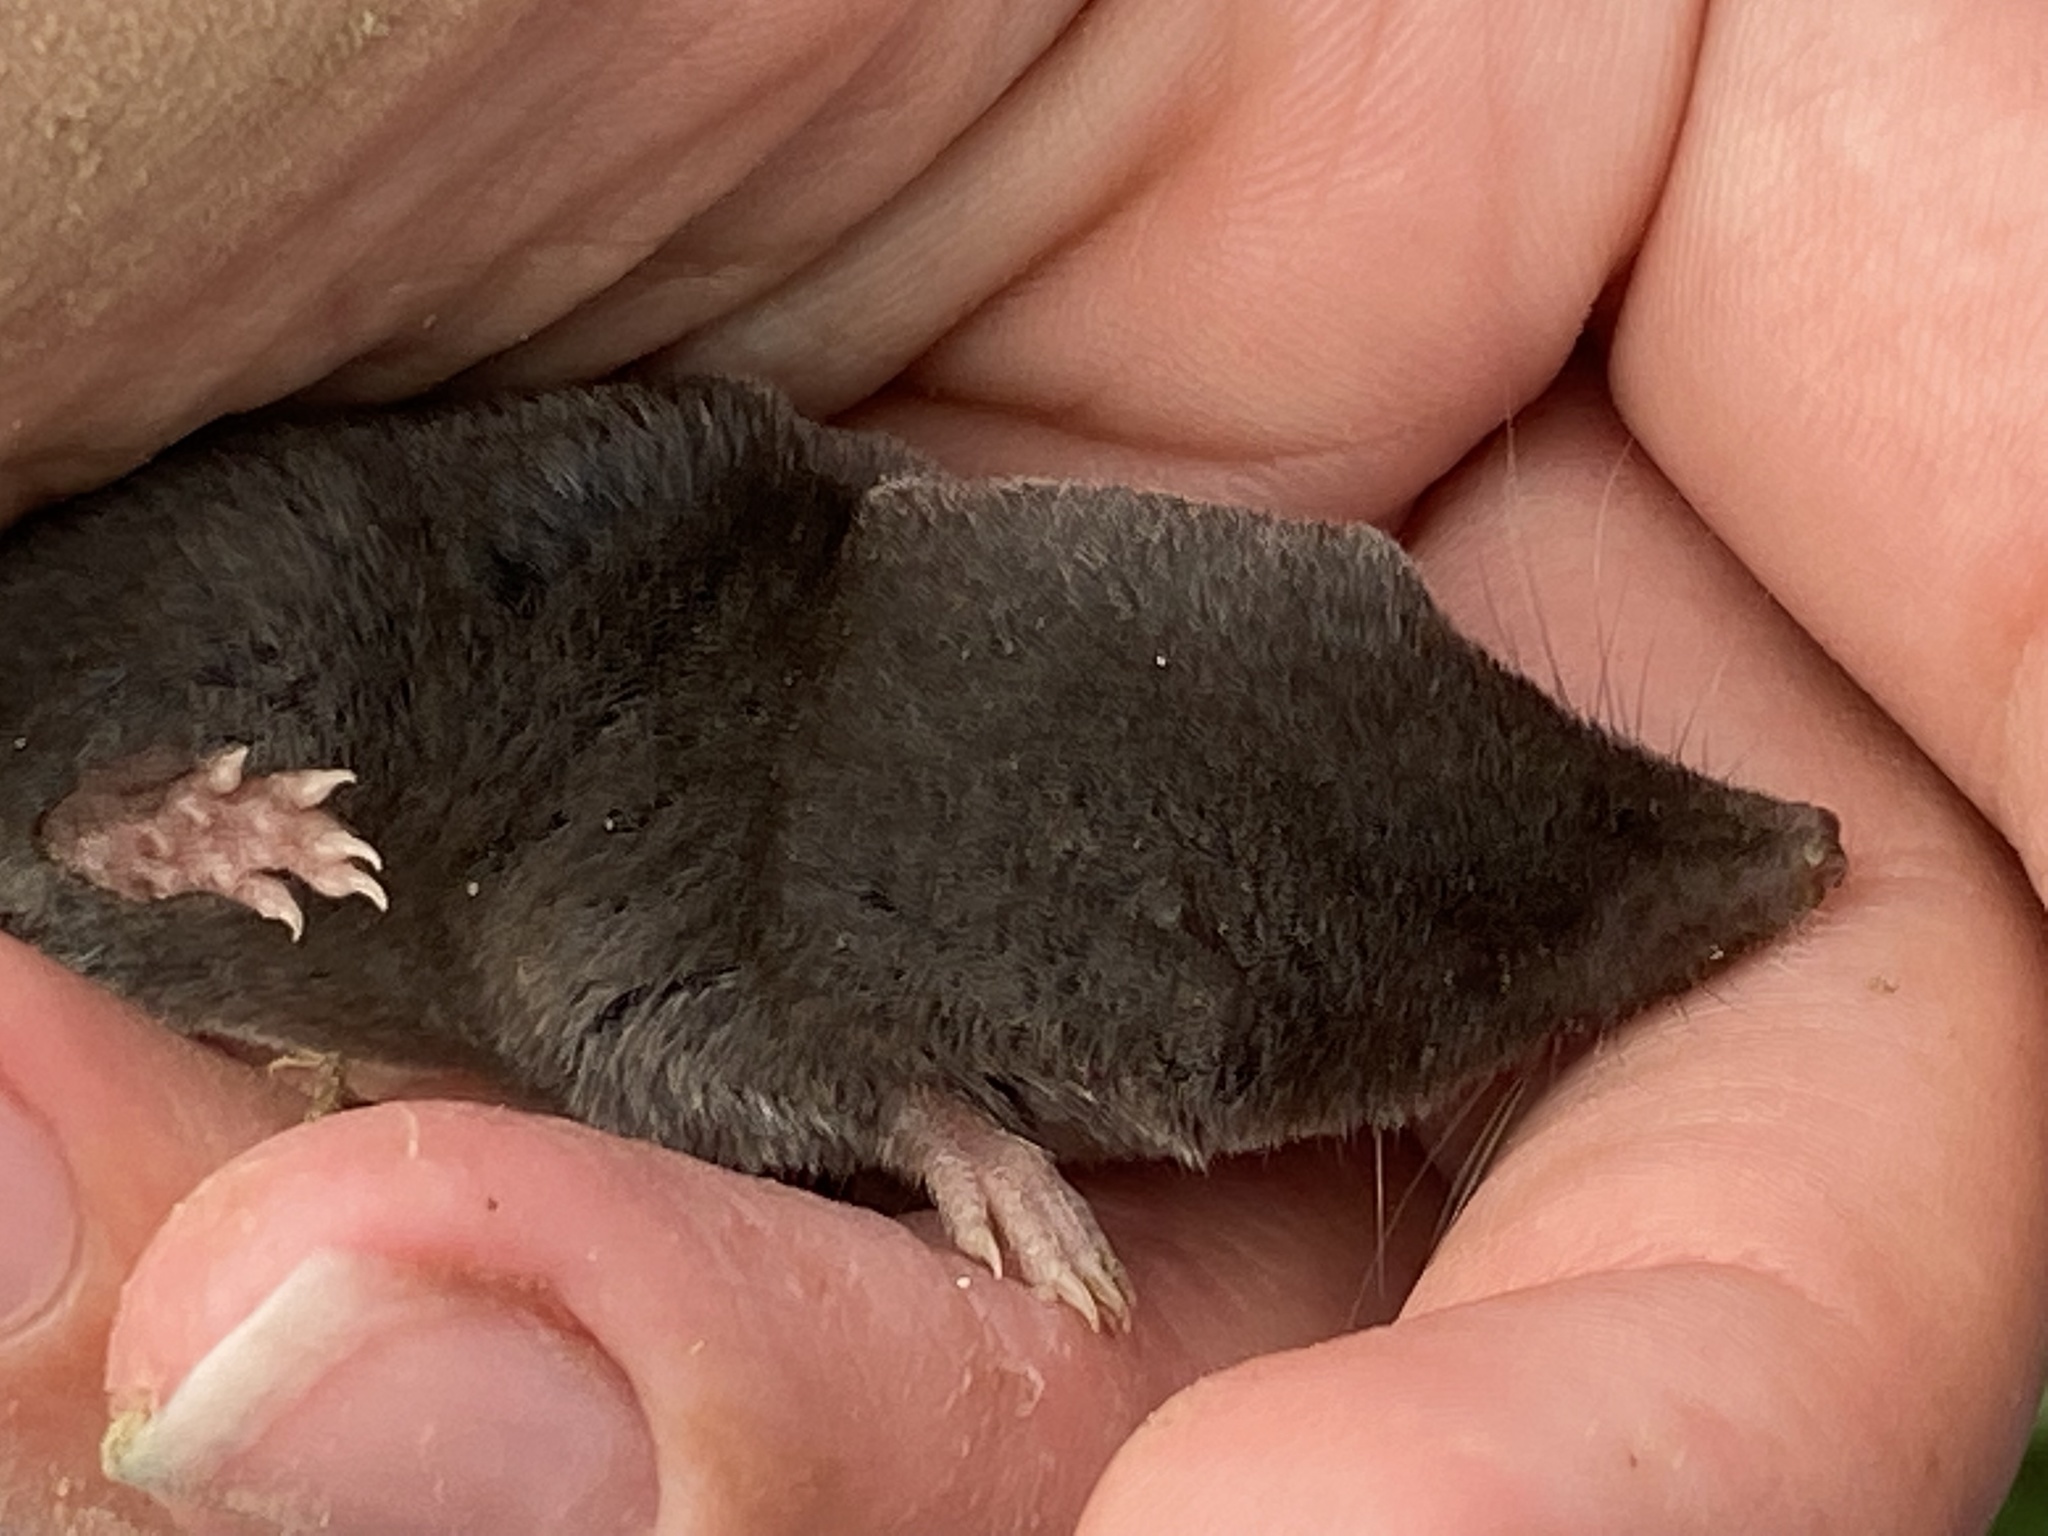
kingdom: Animalia
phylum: Chordata
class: Mammalia
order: Soricomorpha
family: Soricidae
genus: Blarina
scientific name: Blarina brevicauda
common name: Northern short-tailed shrew
